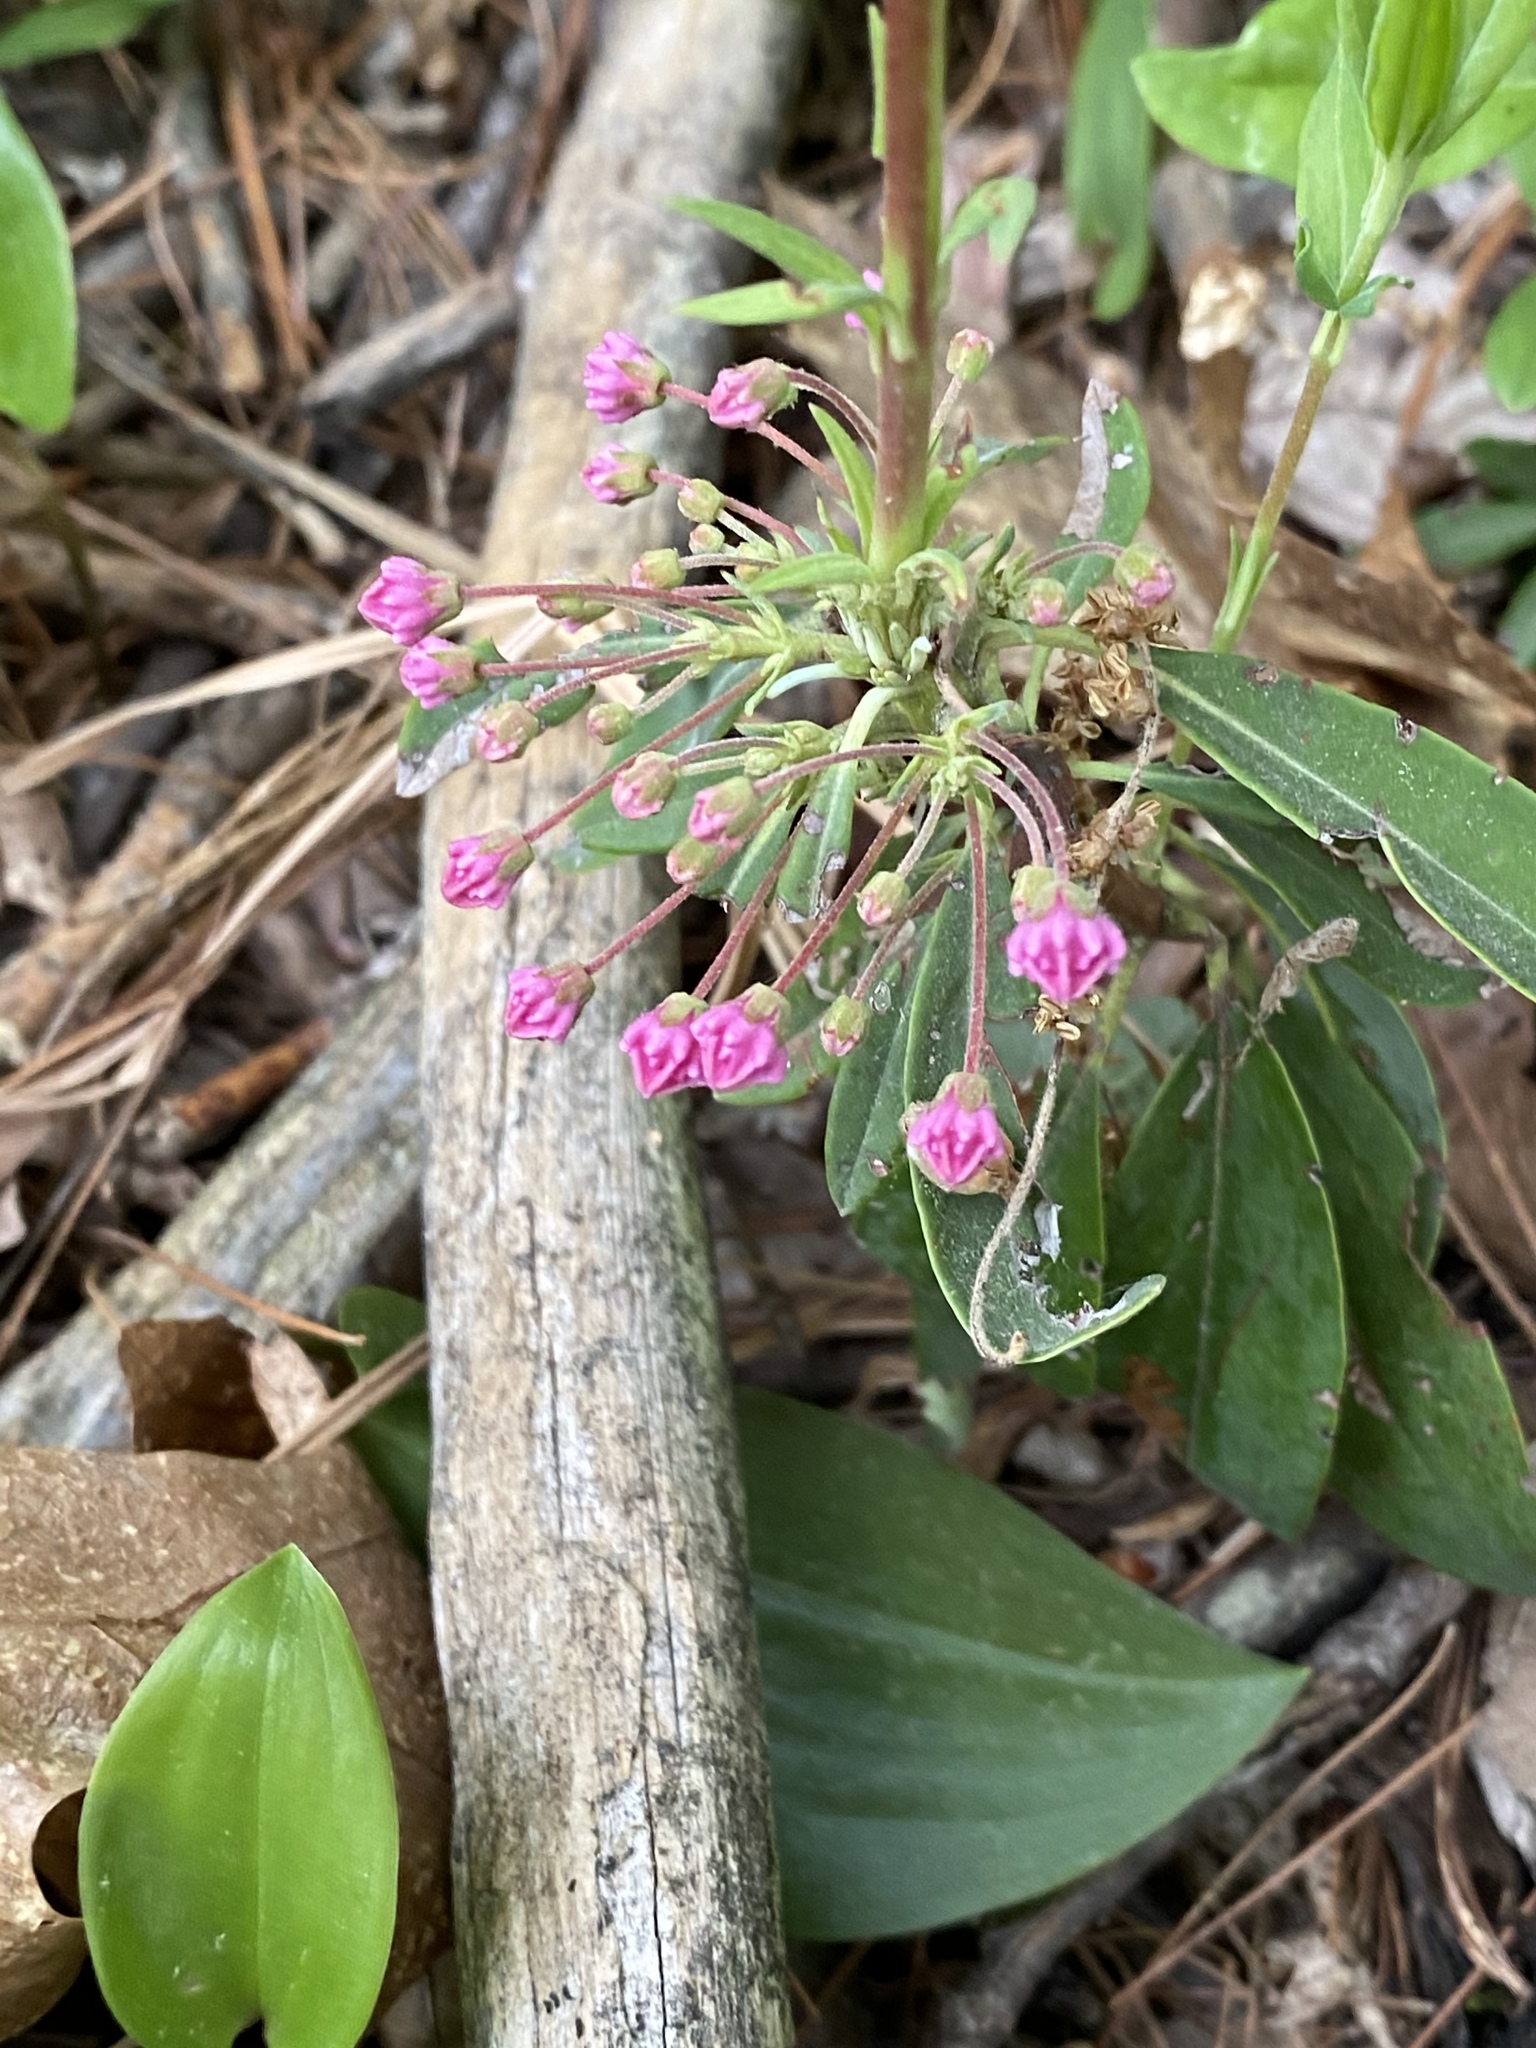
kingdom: Plantae
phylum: Tracheophyta
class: Magnoliopsida
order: Ericales
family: Ericaceae
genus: Kalmia
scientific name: Kalmia angustifolia
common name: Sheep-laurel
